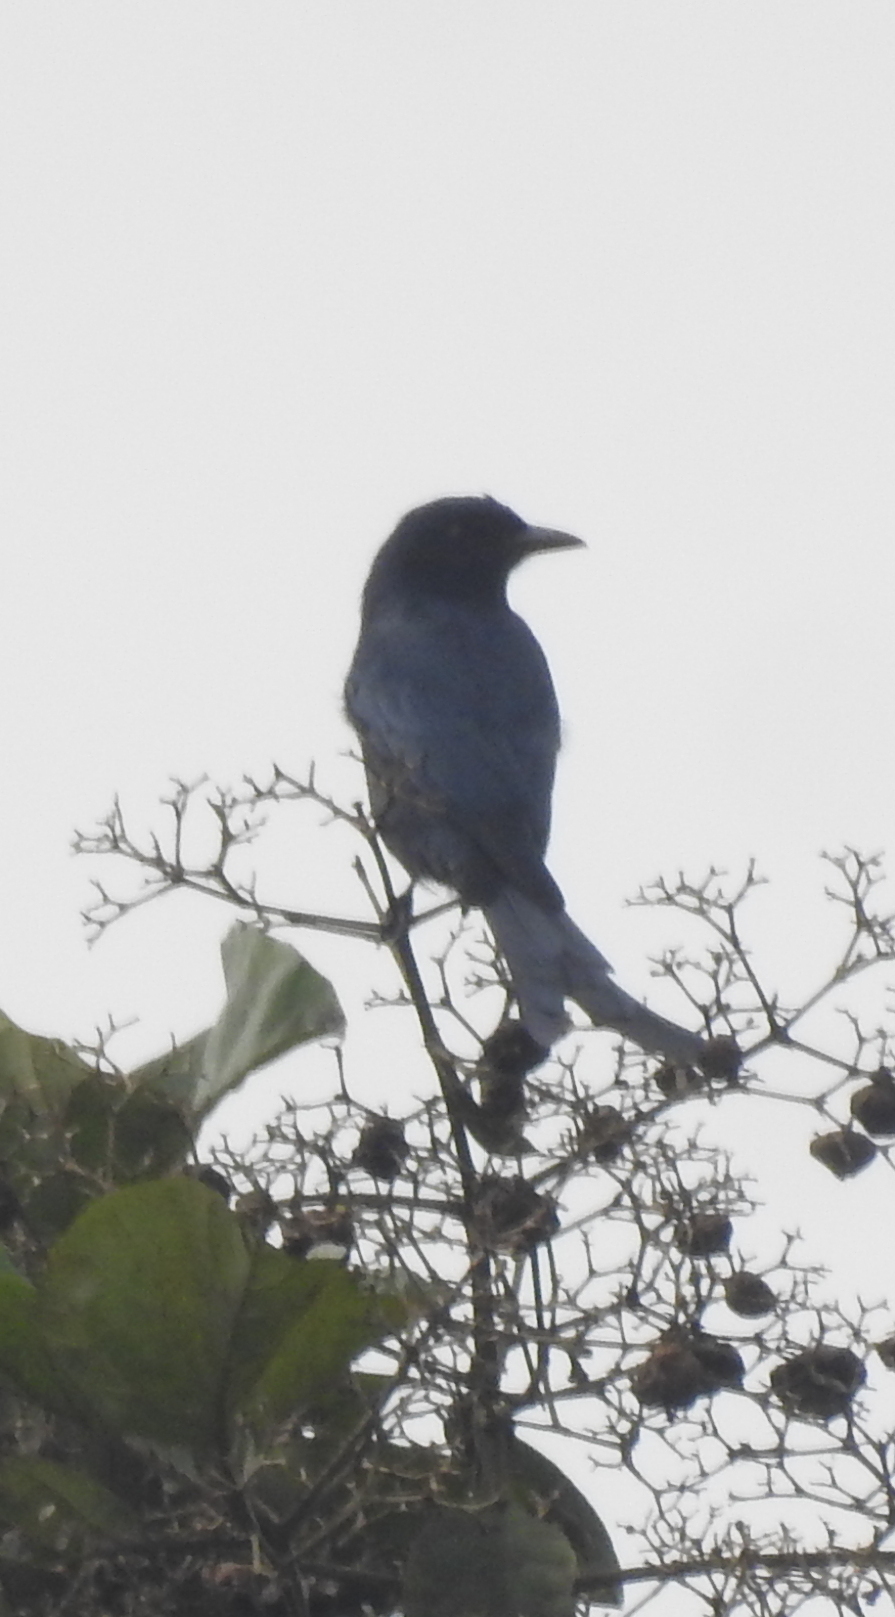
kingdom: Animalia
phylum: Chordata
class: Aves
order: Passeriformes
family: Dicruridae
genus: Dicrurus
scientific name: Dicrurus macrocercus
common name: Black drongo
